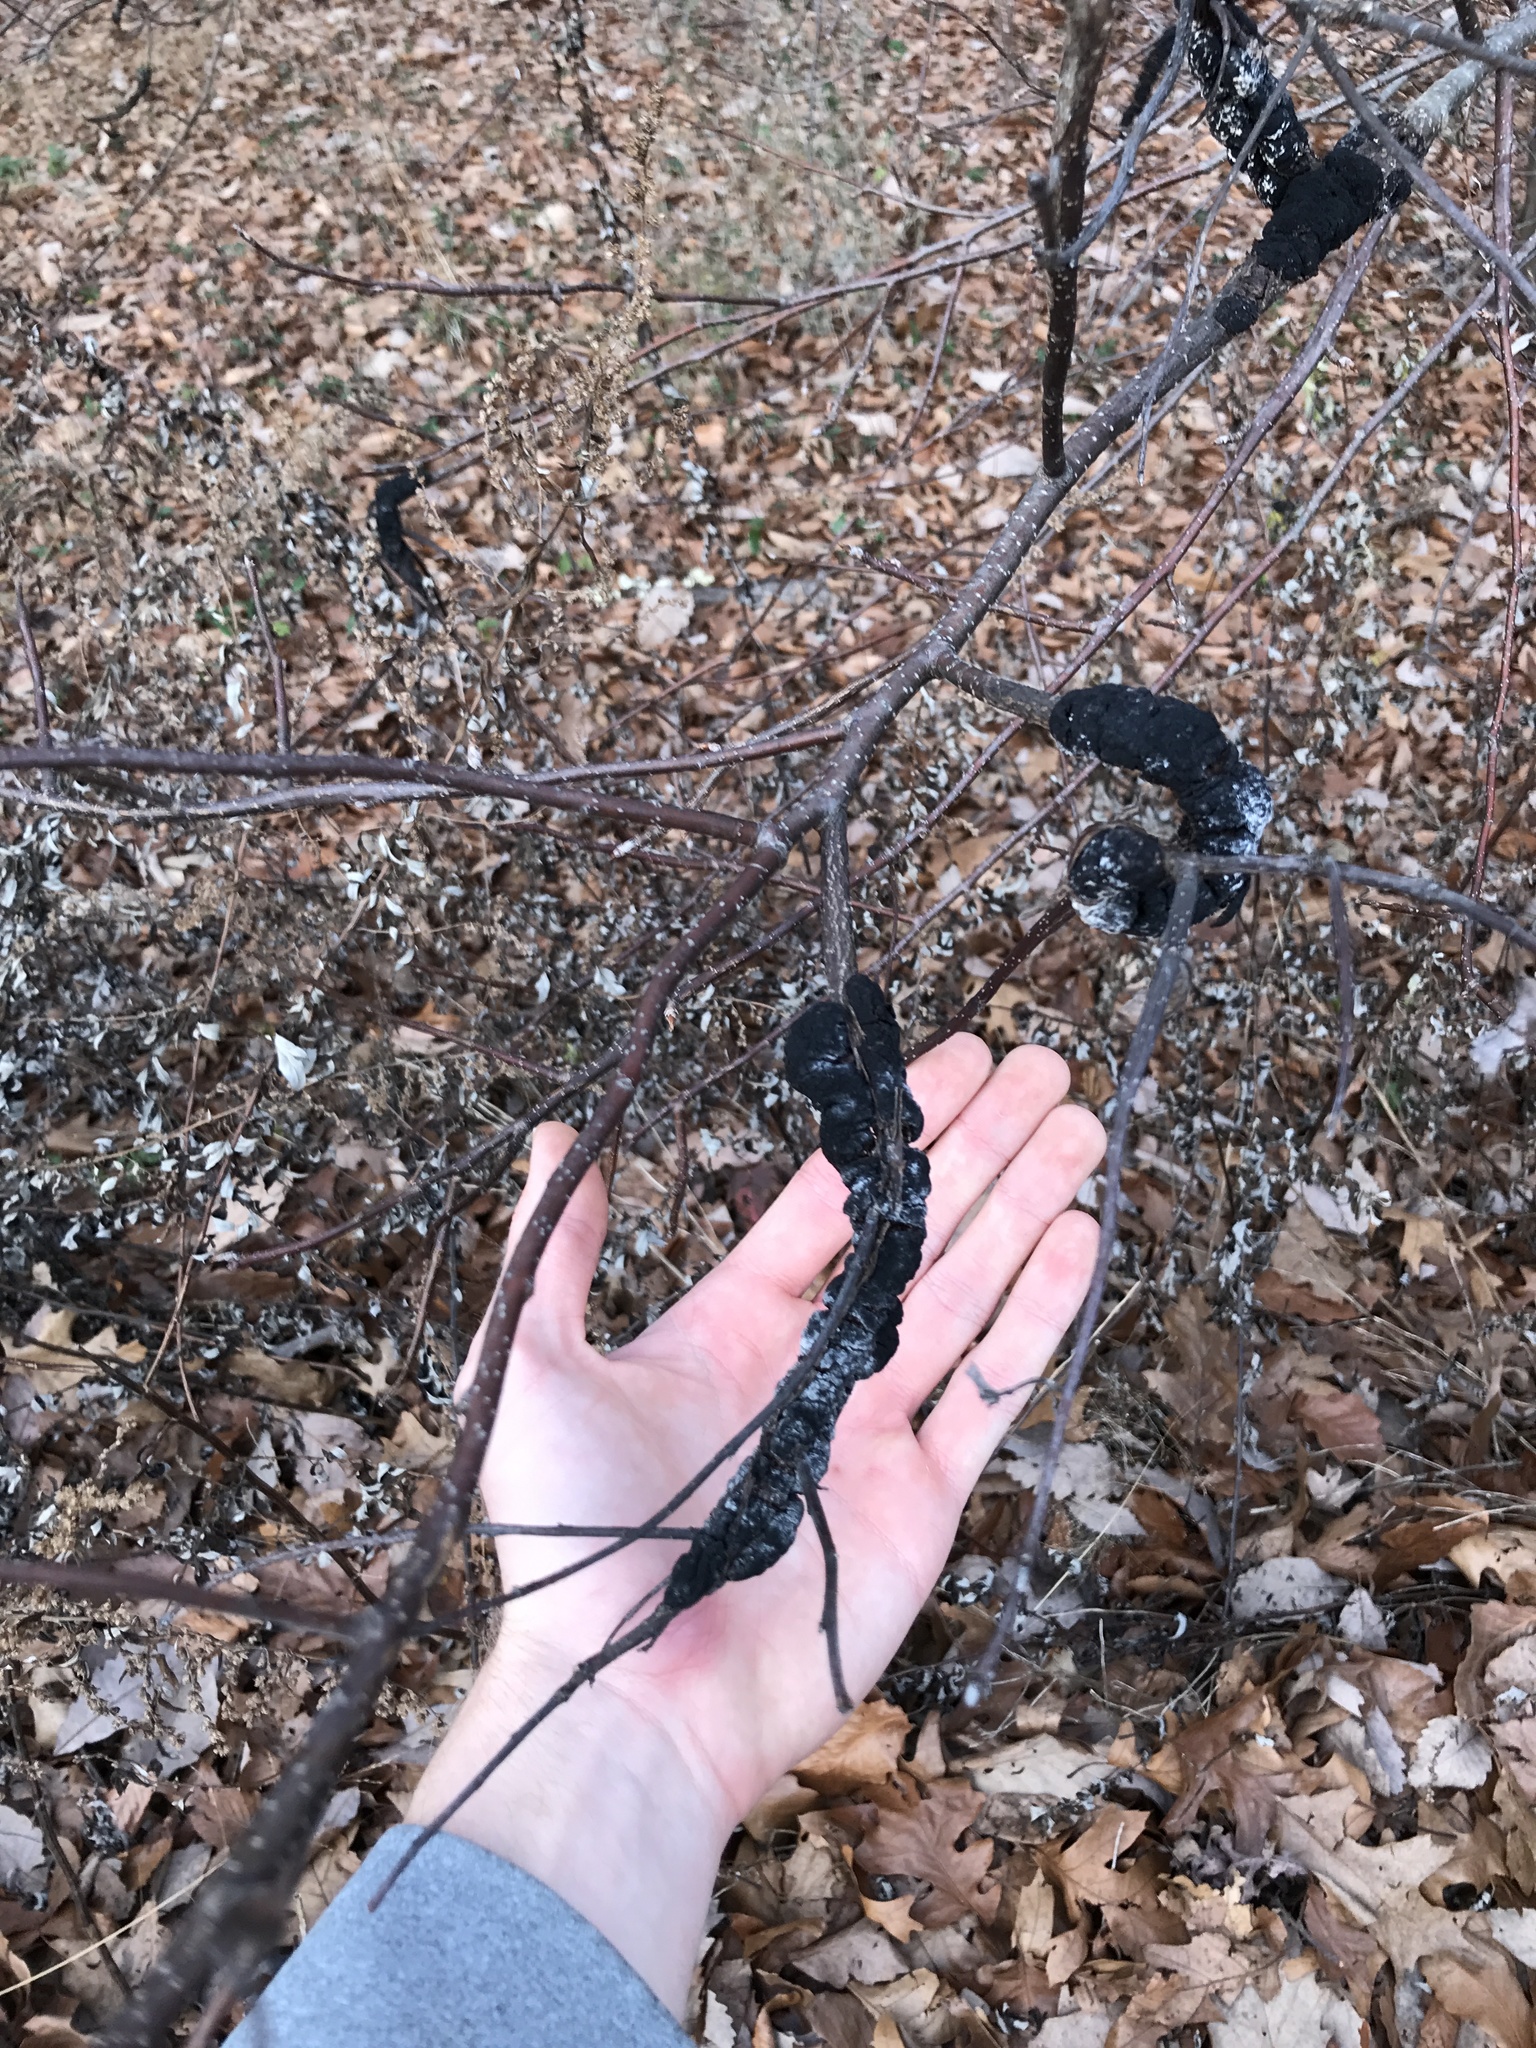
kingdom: Fungi
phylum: Ascomycota
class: Dothideomycetes
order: Venturiales
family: Venturiaceae
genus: Apiosporina
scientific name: Apiosporina morbosa
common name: Black knot
